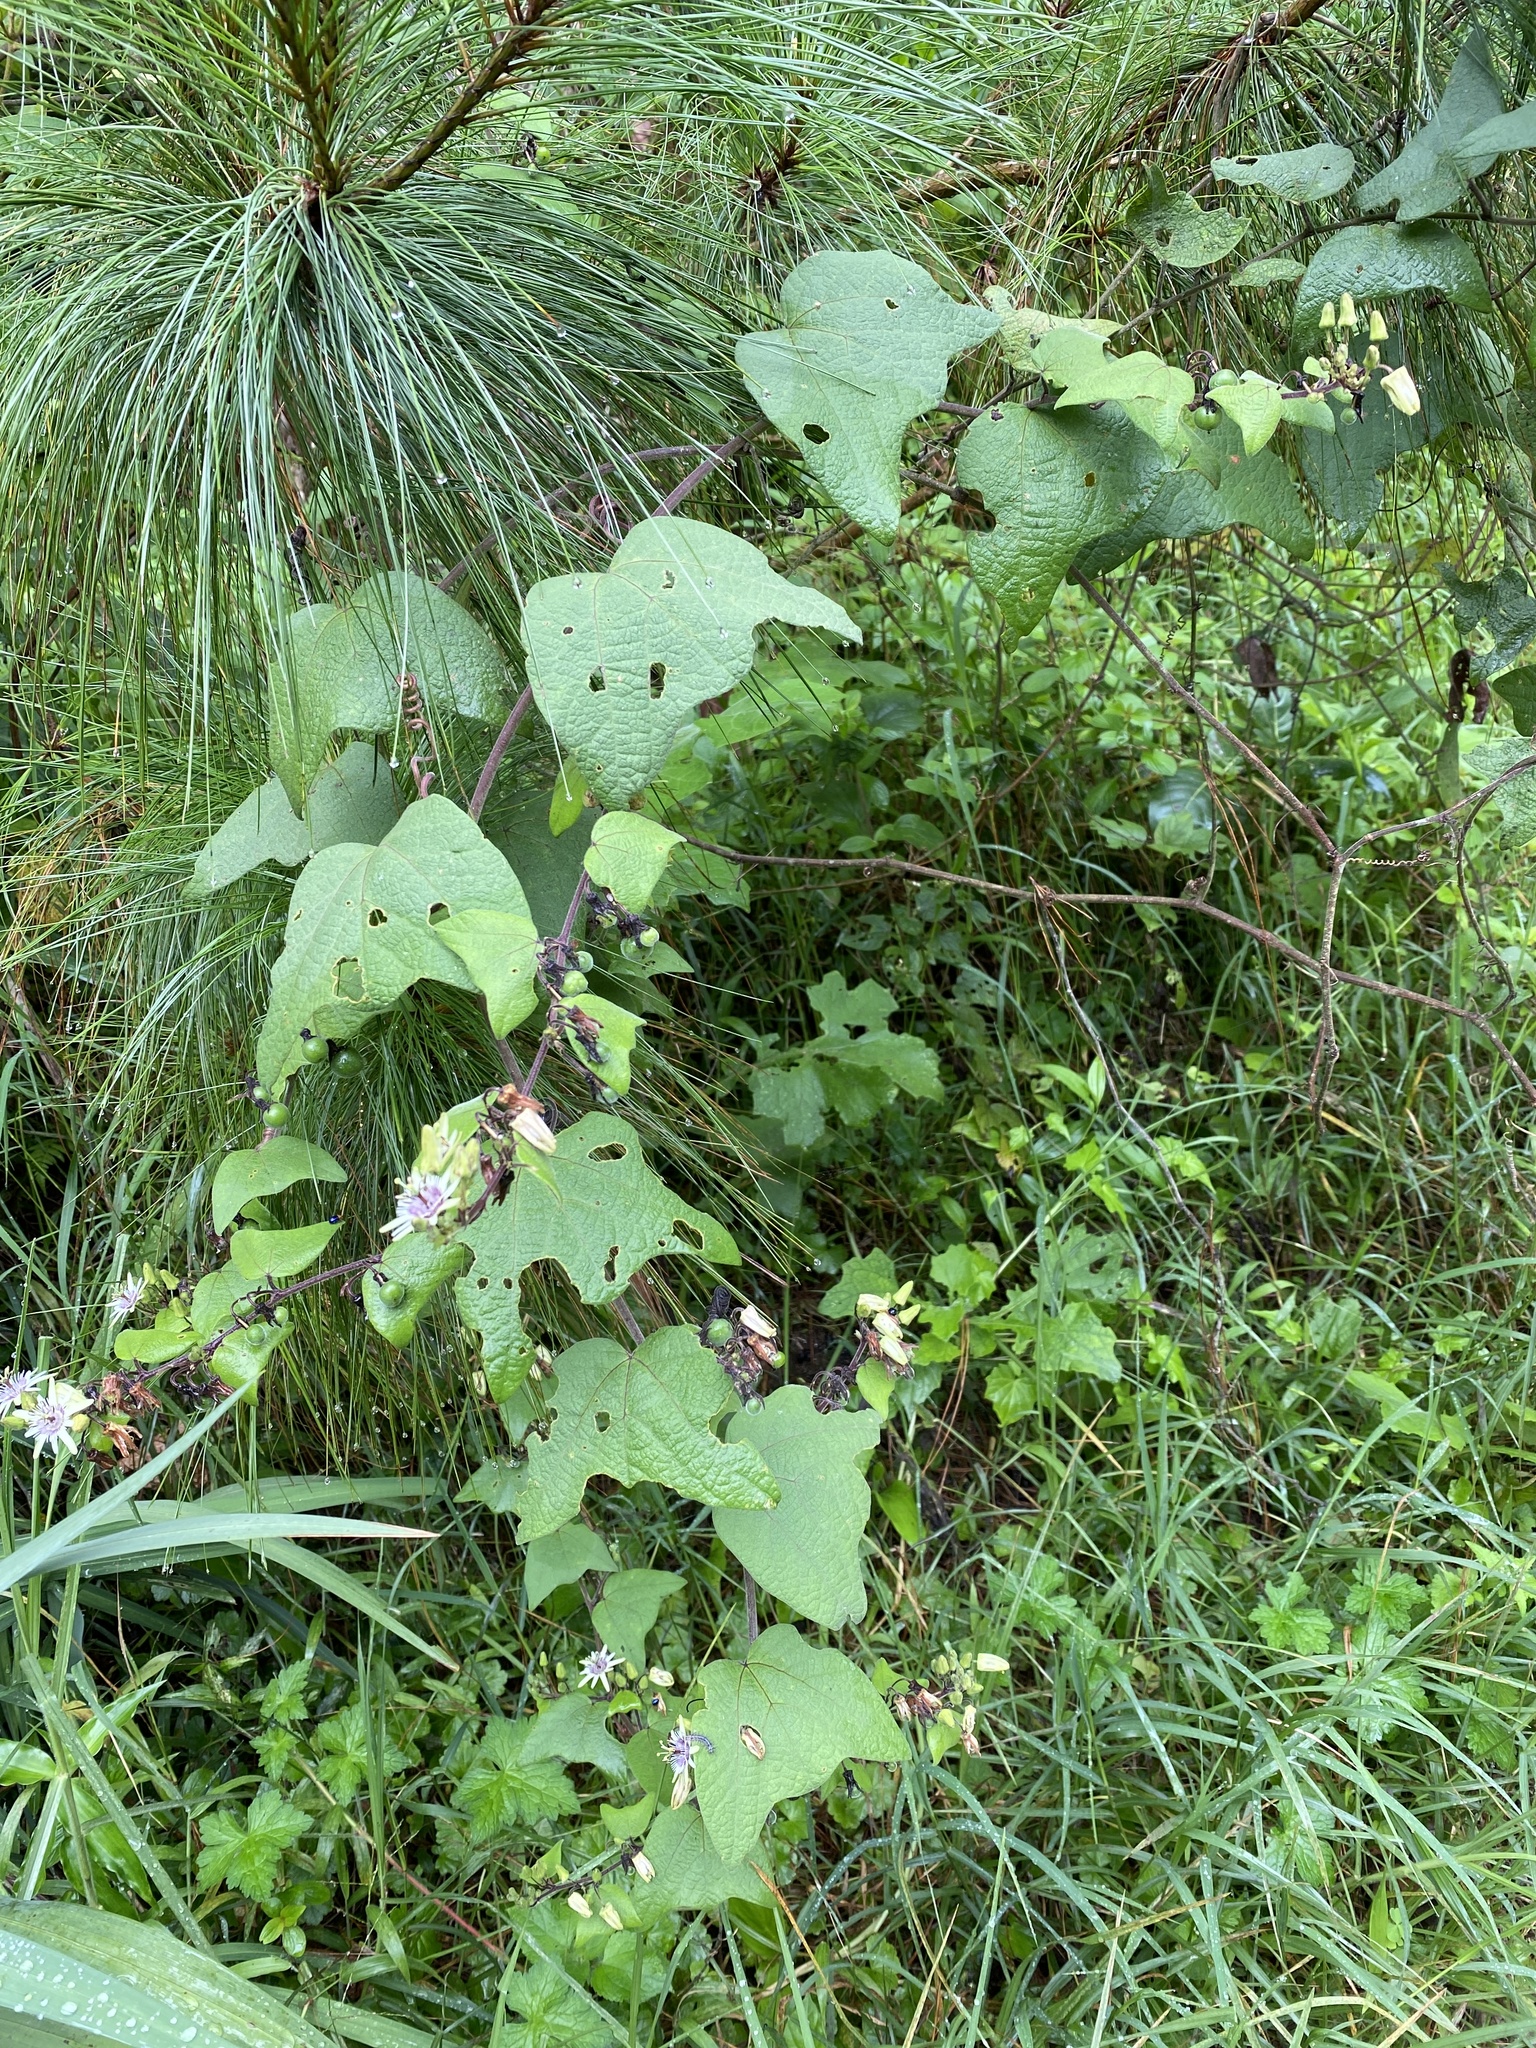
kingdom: Plantae
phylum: Tracheophyta
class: Magnoliopsida
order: Malpighiales
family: Passifloraceae
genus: Passiflora
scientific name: Passiflora sexflora
